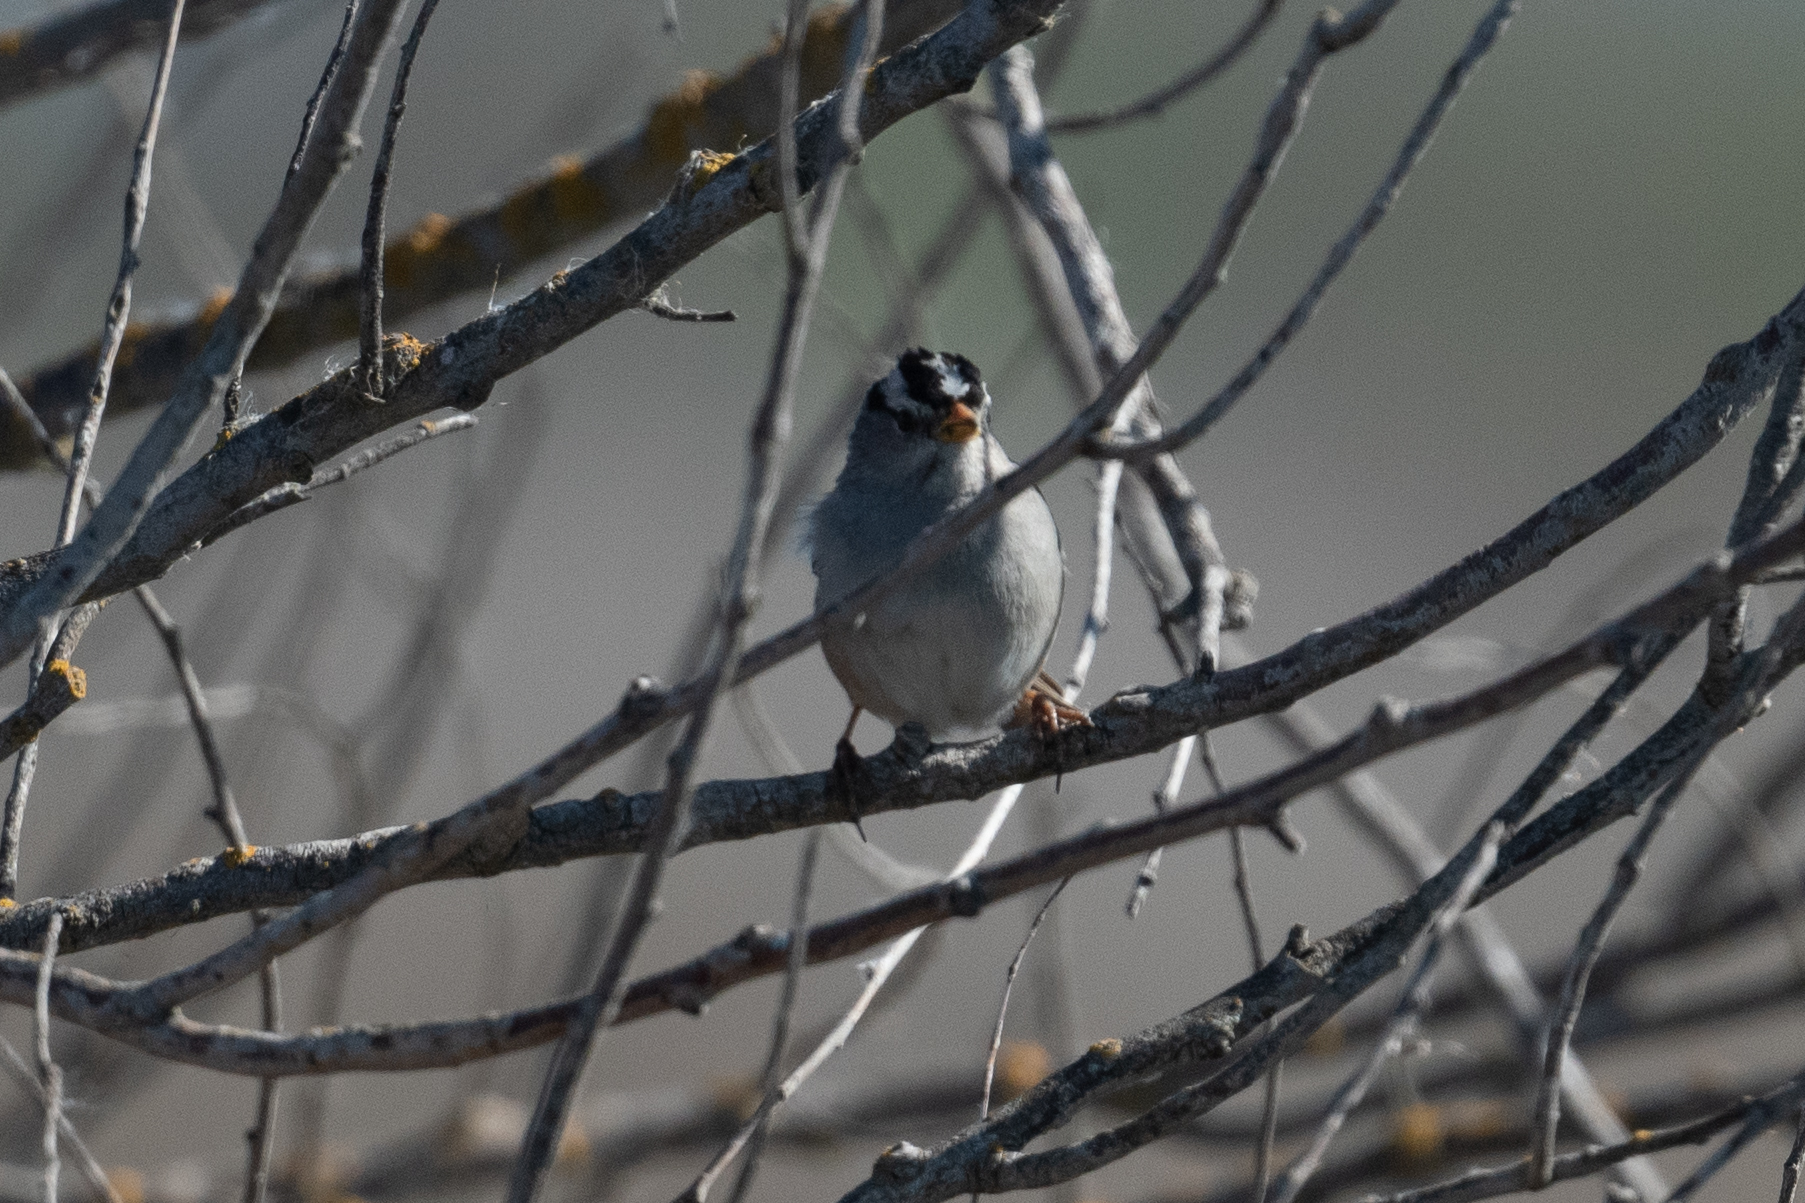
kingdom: Animalia
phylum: Chordata
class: Aves
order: Passeriformes
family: Passerellidae
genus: Zonotrichia
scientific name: Zonotrichia leucophrys
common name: White-crowned sparrow
